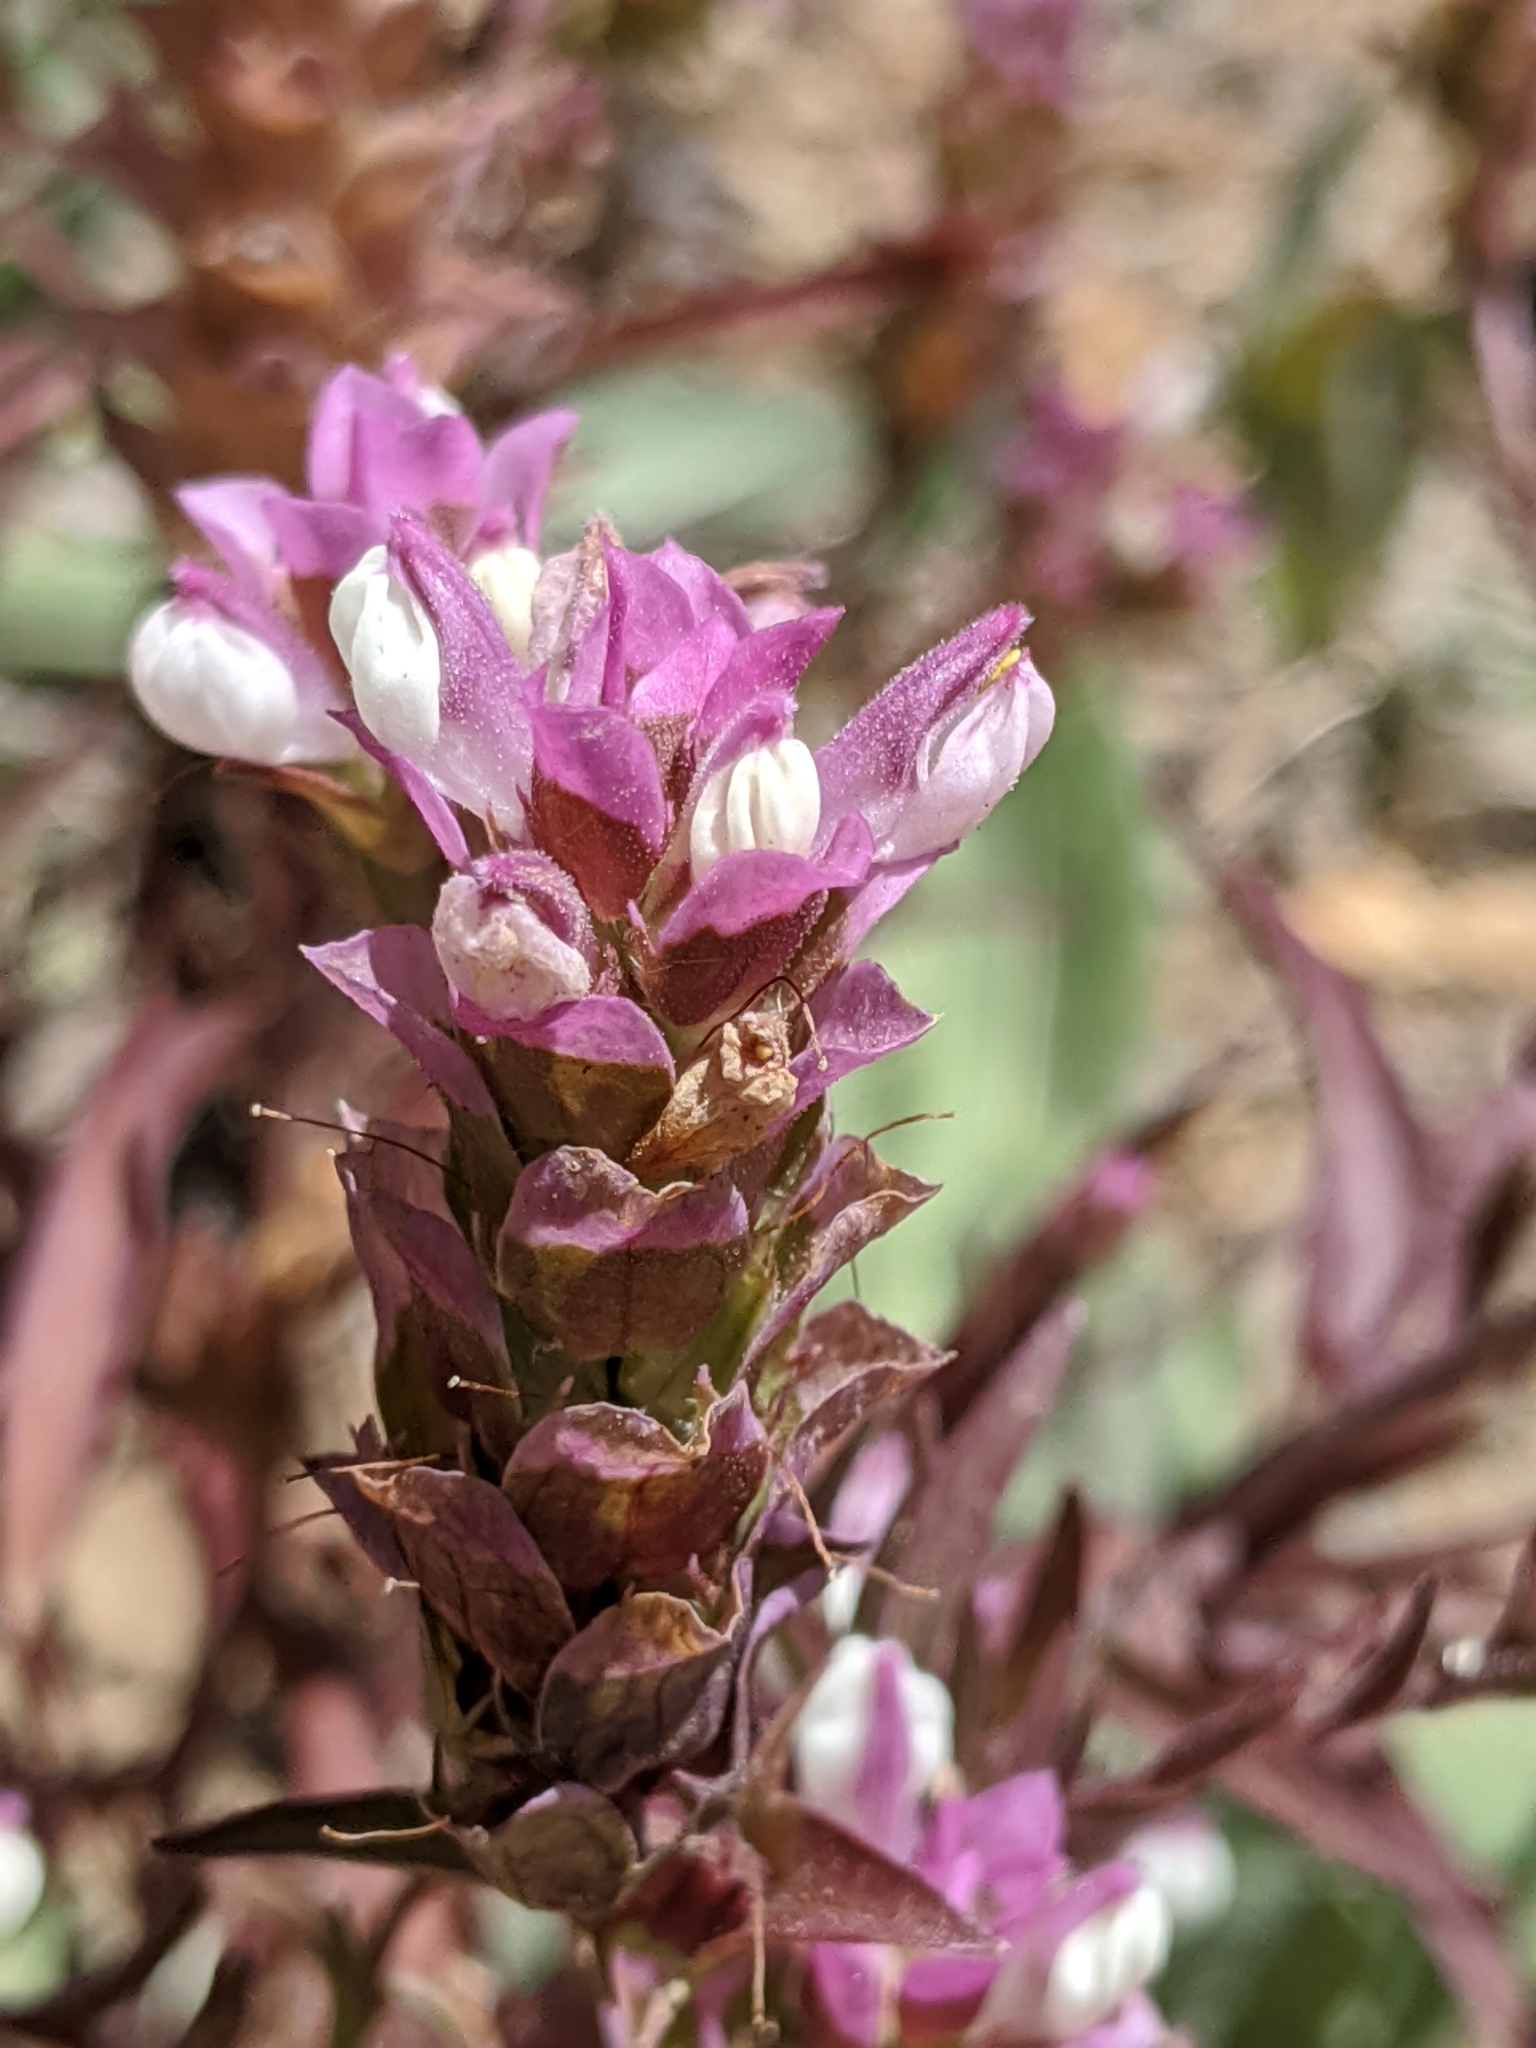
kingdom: Plantae
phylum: Tracheophyta
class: Magnoliopsida
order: Lamiales
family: Orobanchaceae
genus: Orthocarpus
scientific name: Orthocarpus cuspidatus
